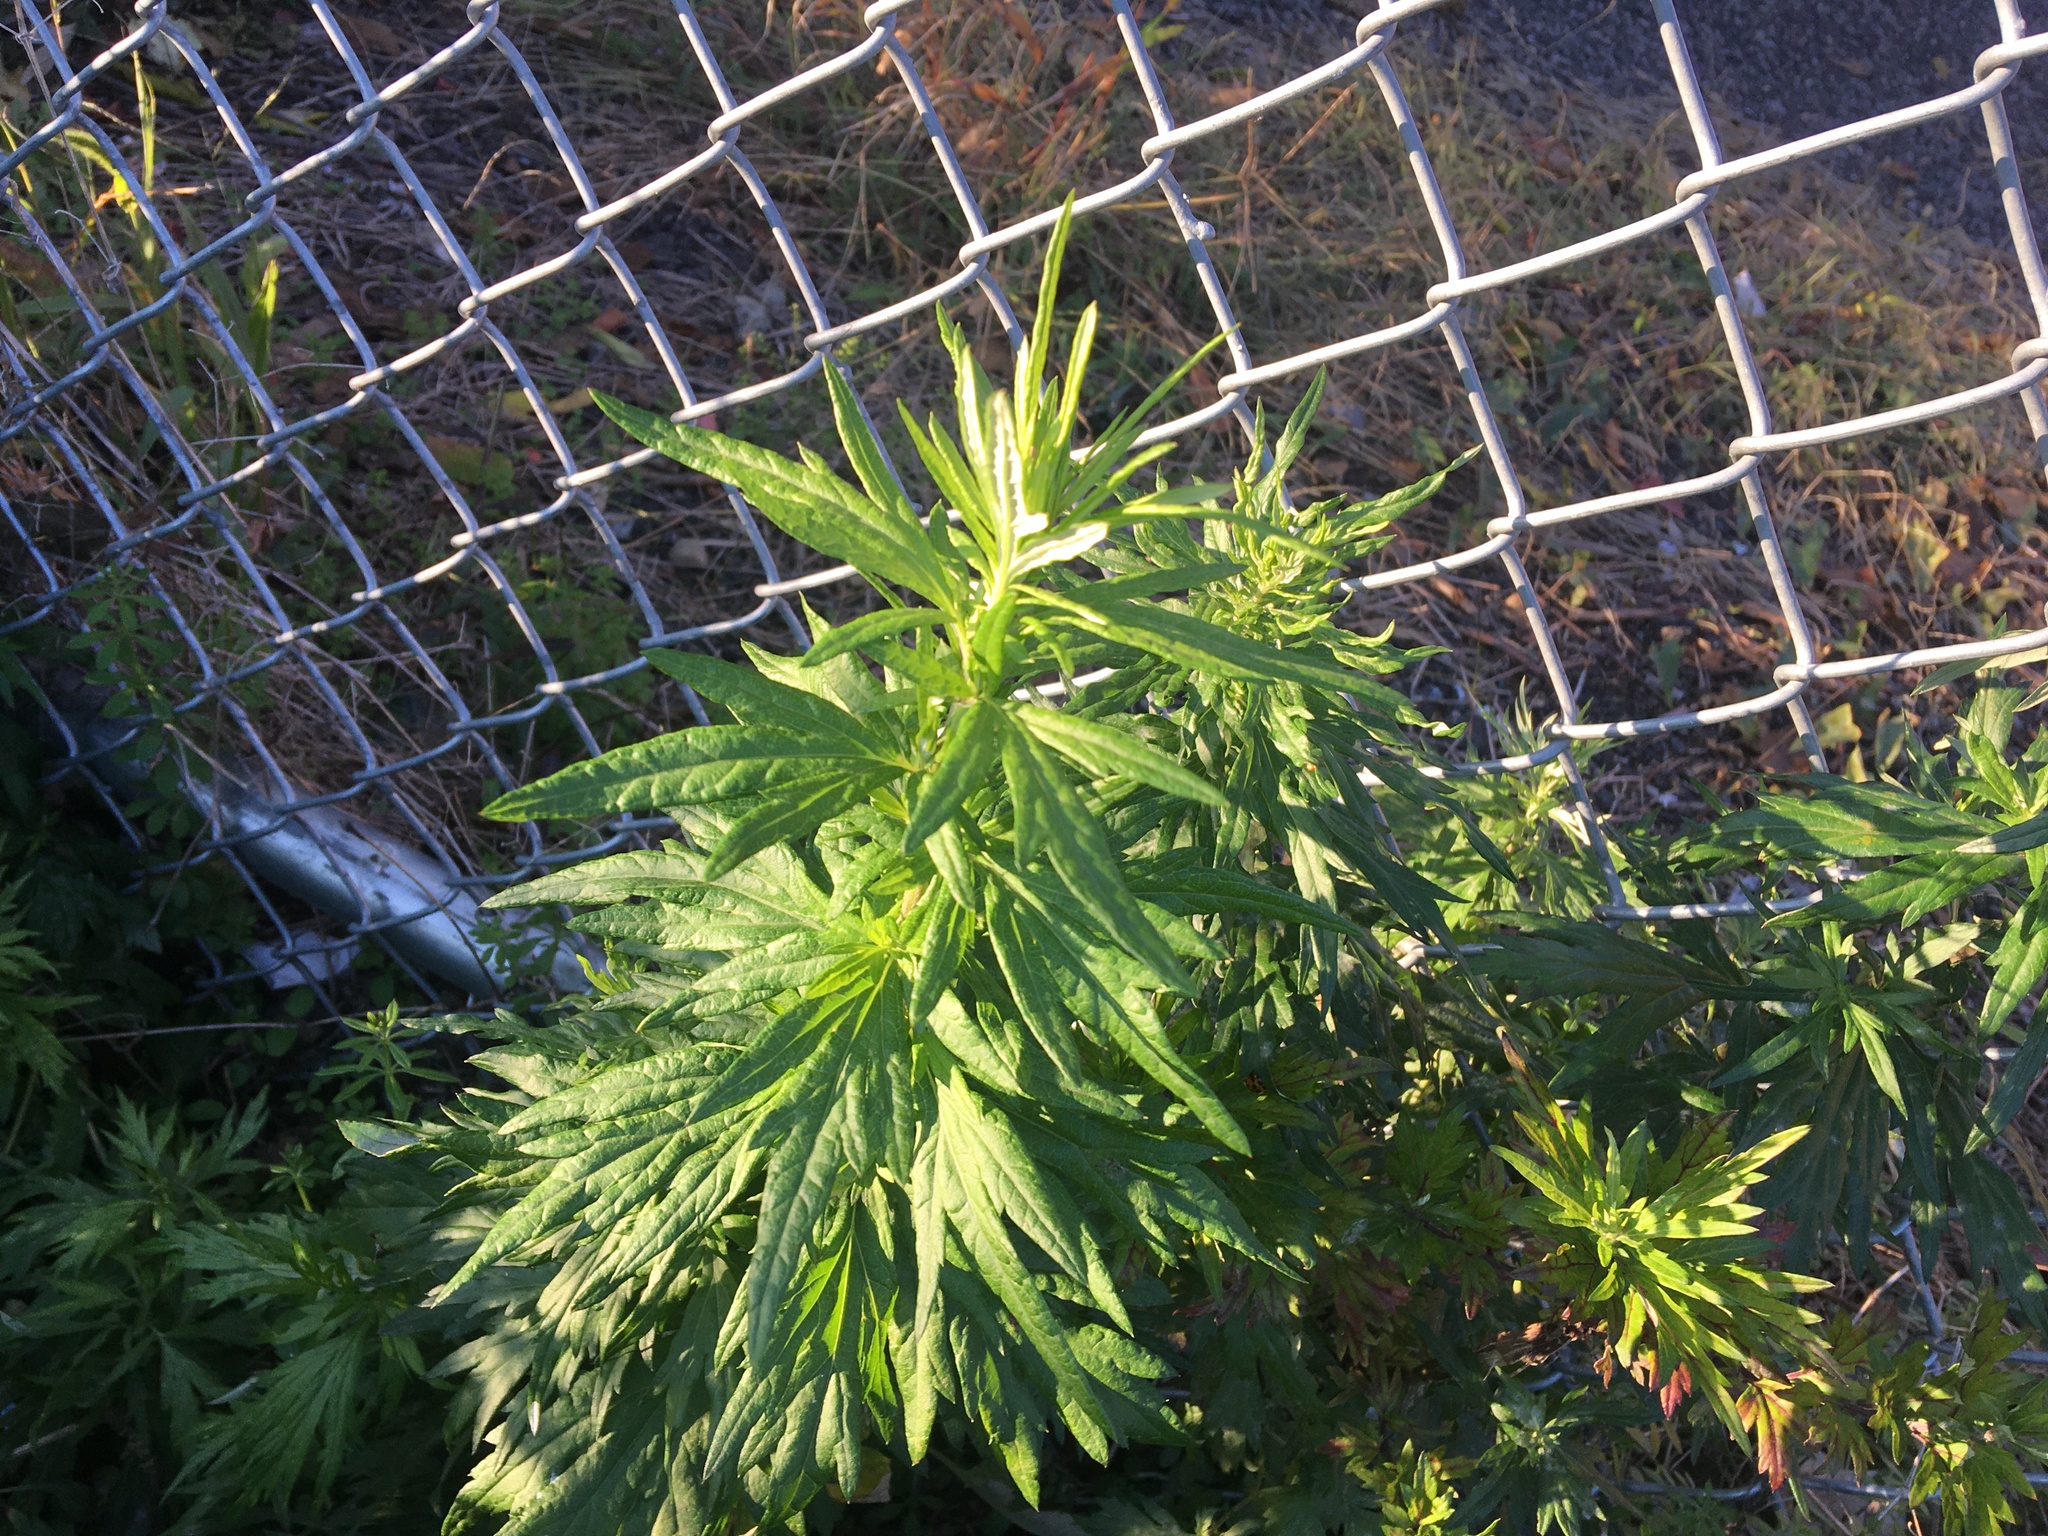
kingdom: Plantae
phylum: Tracheophyta
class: Magnoliopsida
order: Asterales
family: Asteraceae
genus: Artemisia
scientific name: Artemisia vulgaris
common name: Mugwort
